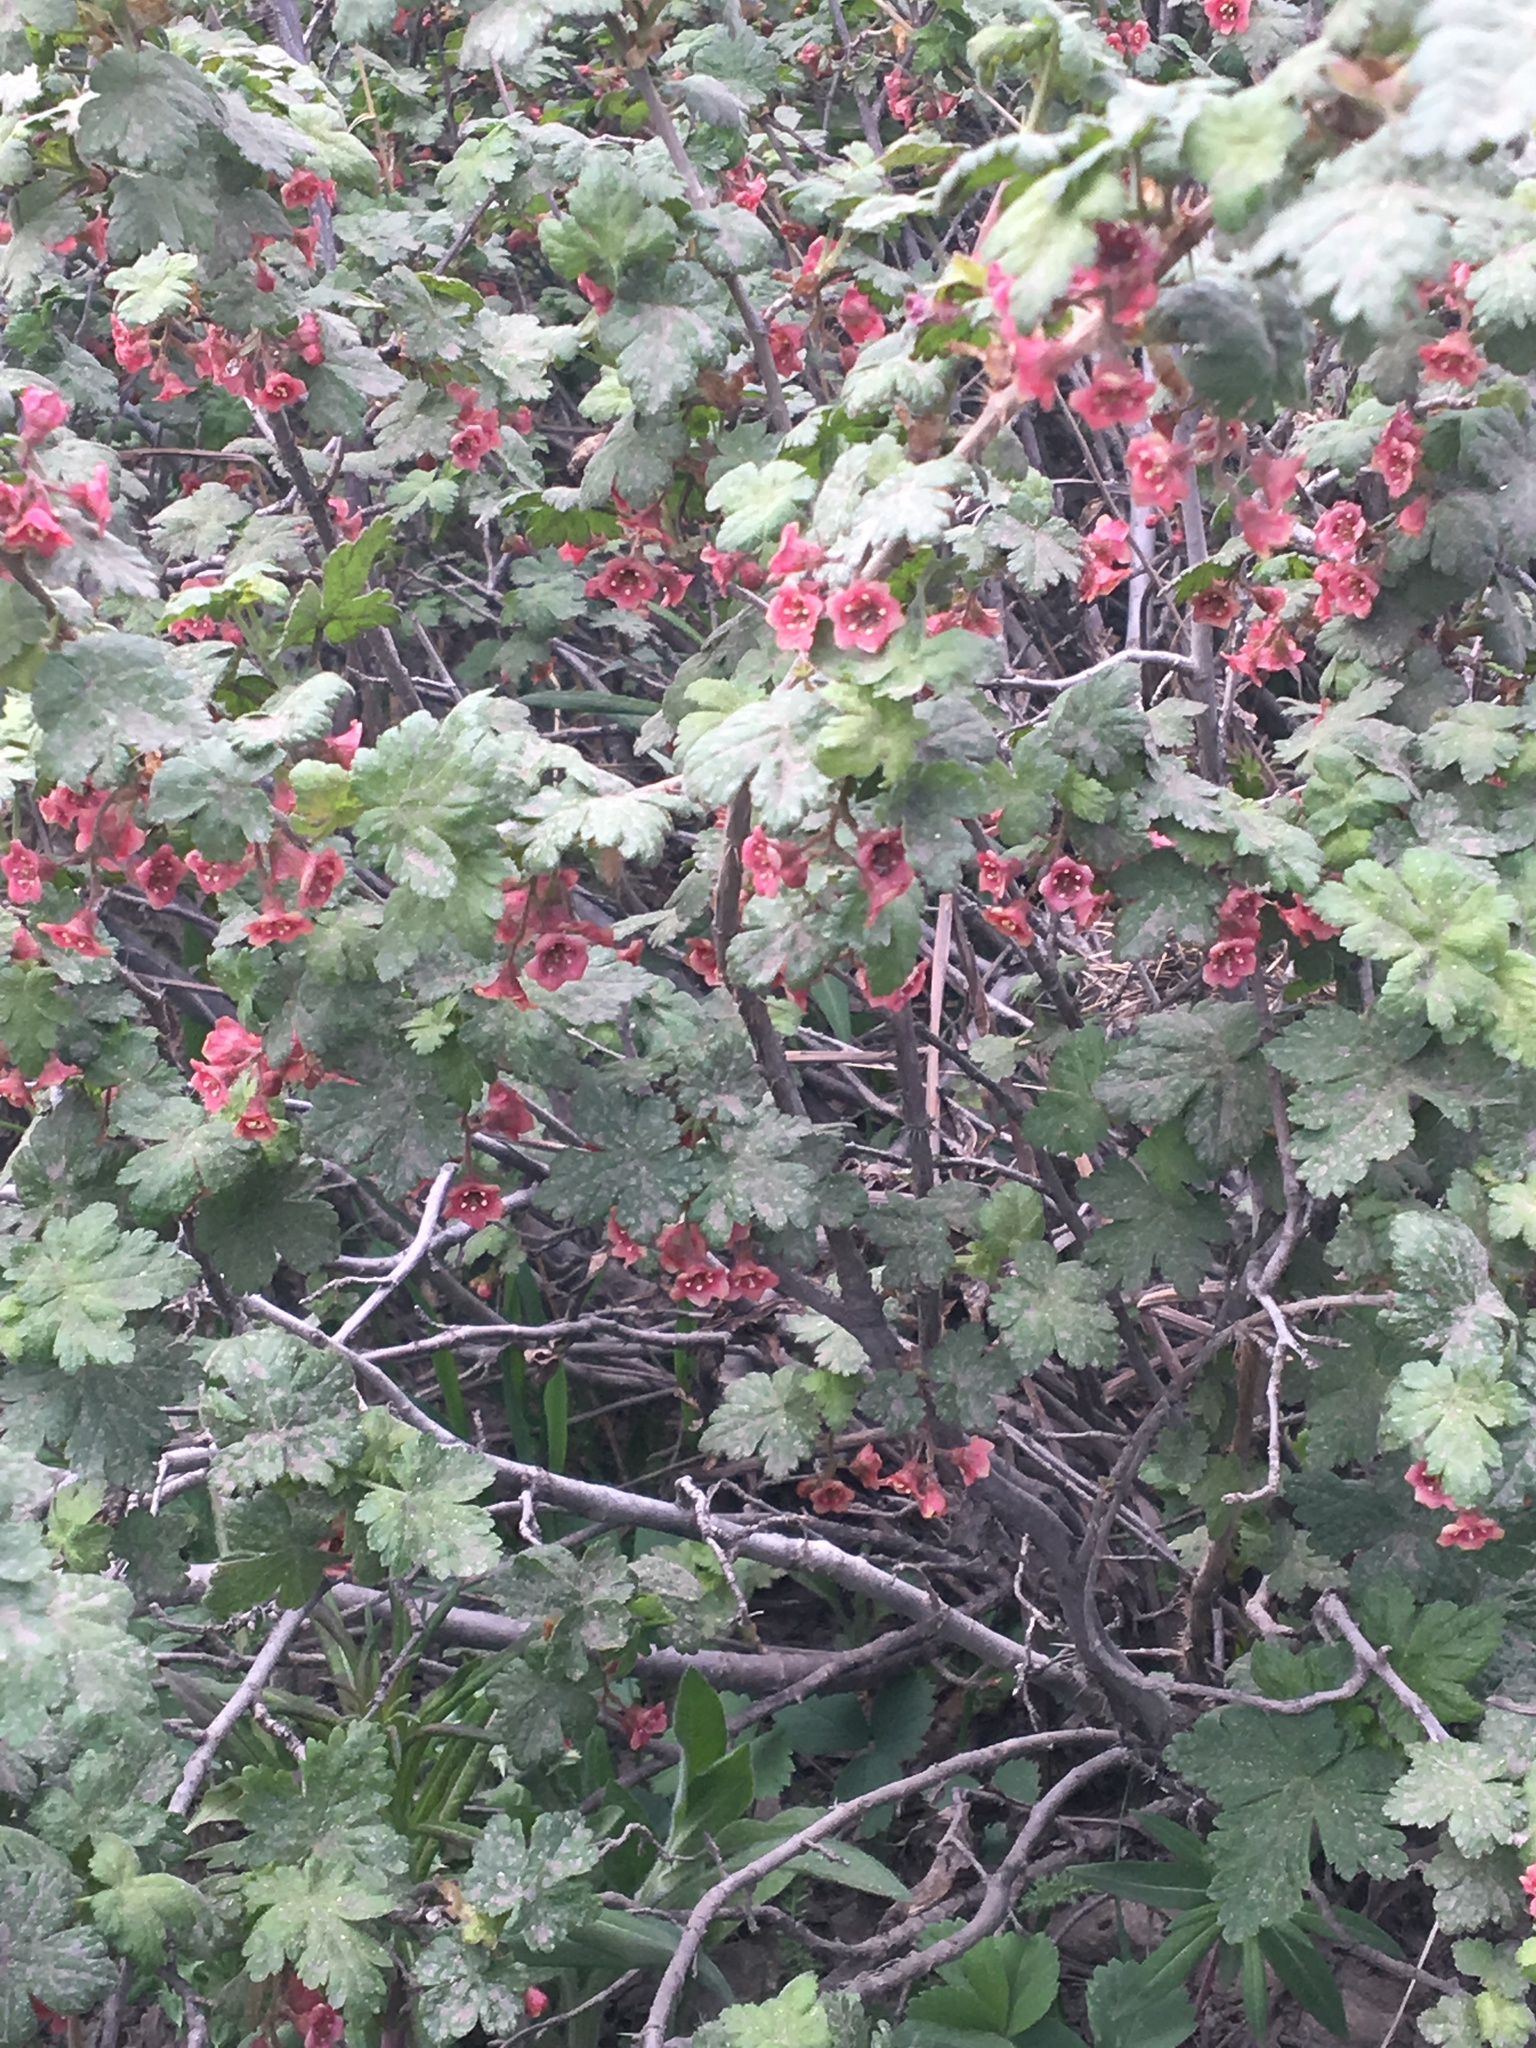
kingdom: Plantae
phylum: Tracheophyta
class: Magnoliopsida
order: Saxifragales
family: Grossulariaceae
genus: Ribes
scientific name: Ribes montigenum
